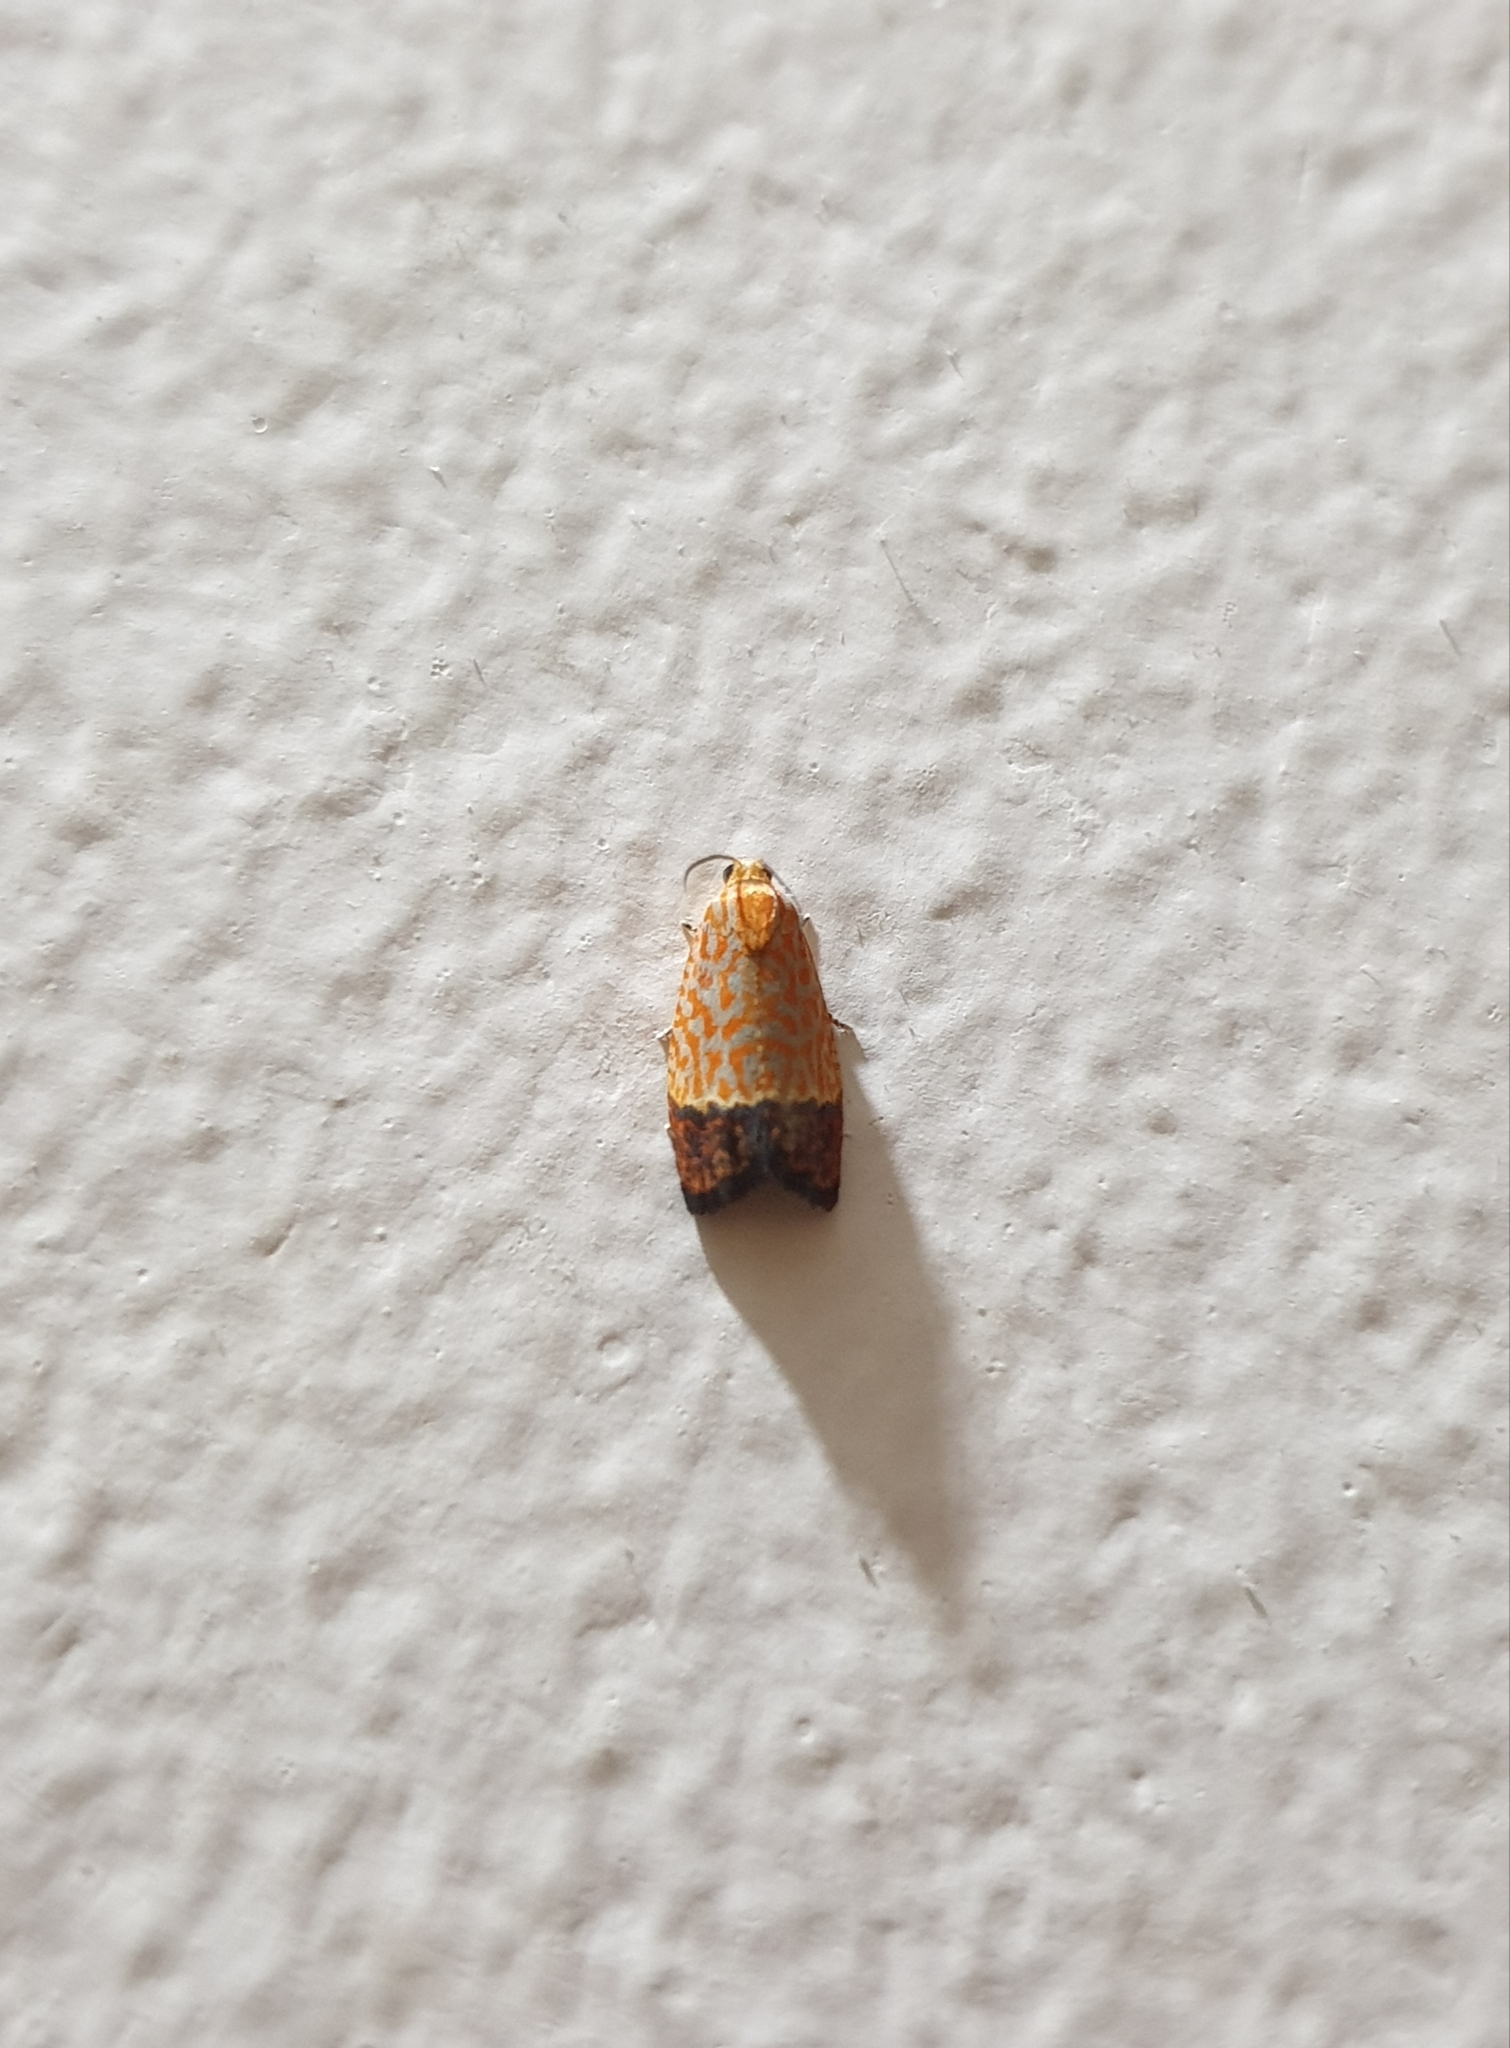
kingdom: Animalia
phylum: Arthropoda
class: Insecta
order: Lepidoptera
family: Tortricidae
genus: Loboschiza
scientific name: Loboschiza koenigiana
